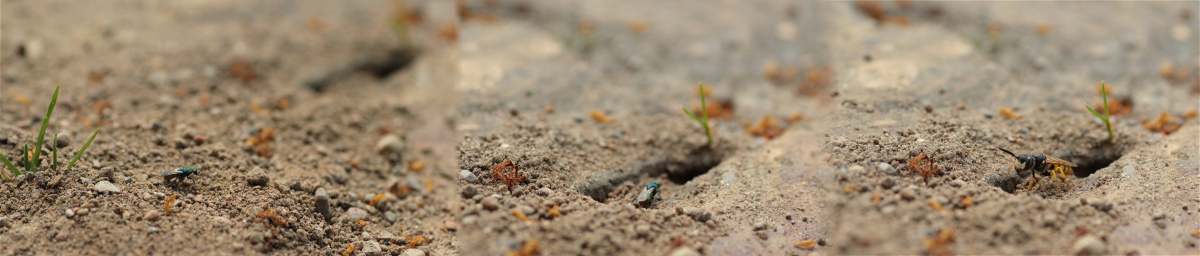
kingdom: Animalia
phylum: Arthropoda
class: Insecta
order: Hymenoptera
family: Chrysididae
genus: Hedychrum
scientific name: Hedychrum rutilans
